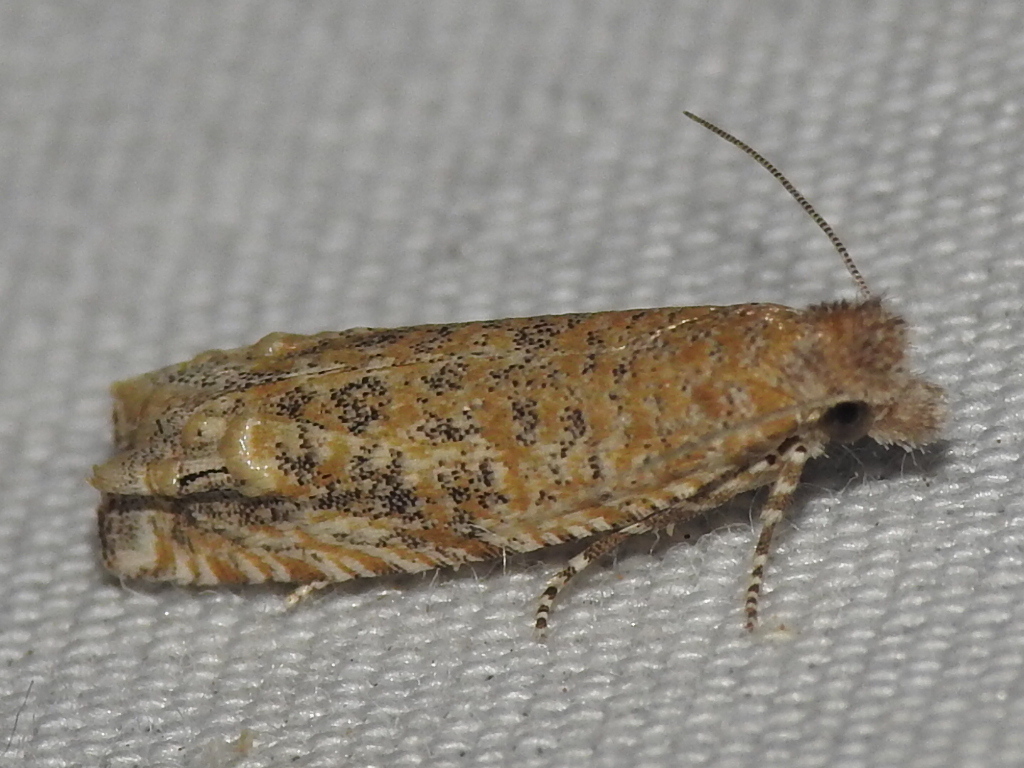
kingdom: Animalia
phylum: Arthropoda
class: Insecta
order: Lepidoptera
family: Tortricidae
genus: Pelochrista
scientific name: Pelochrista comatulana
